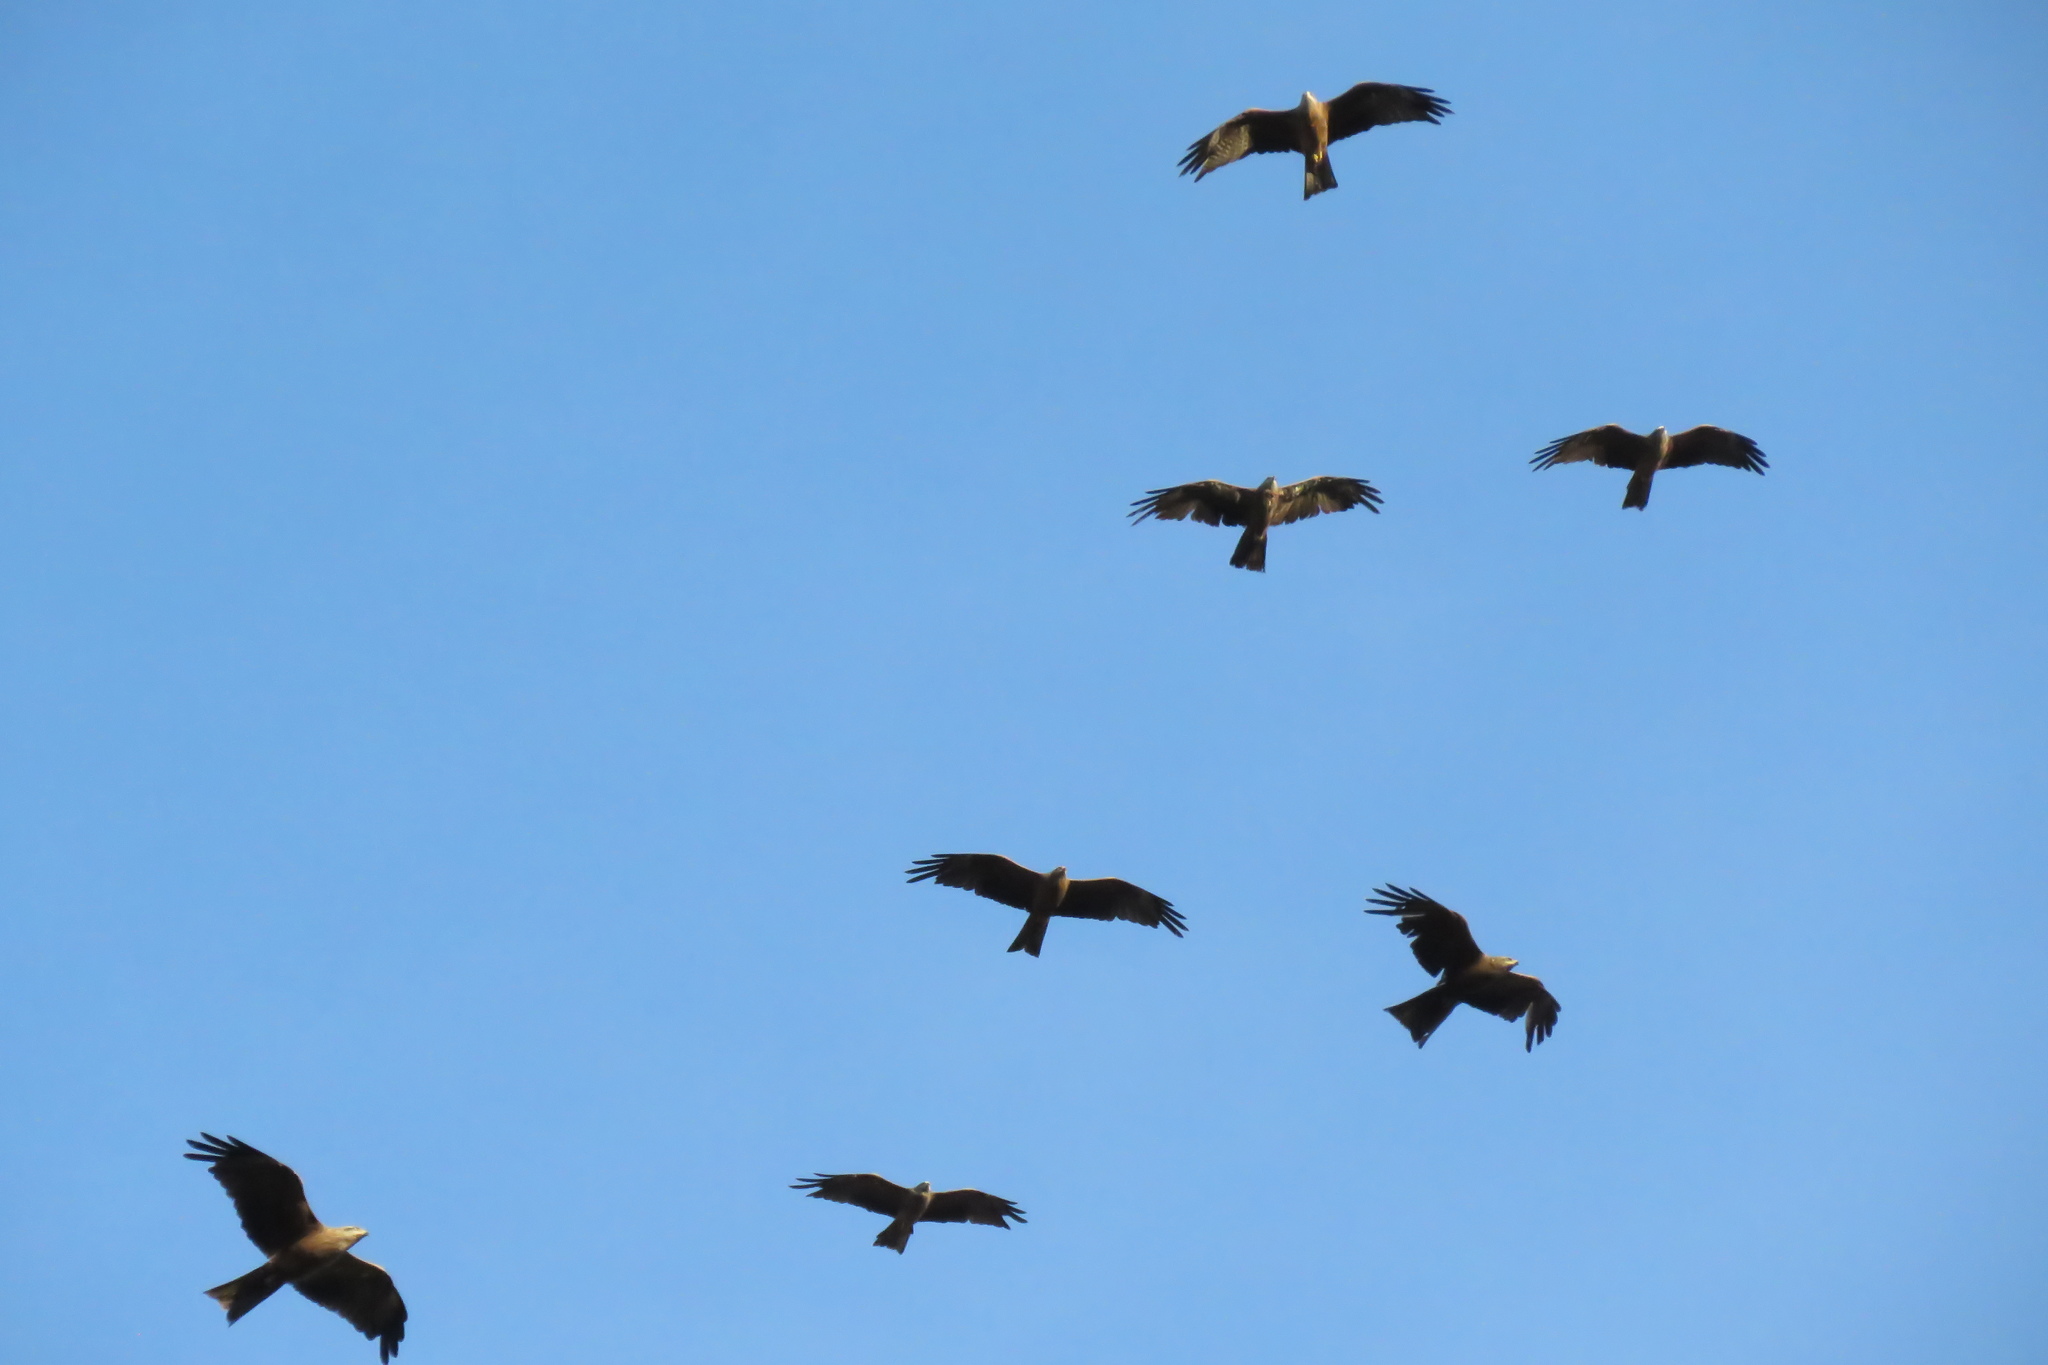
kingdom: Animalia
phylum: Chordata
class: Aves
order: Accipitriformes
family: Accipitridae
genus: Milvus
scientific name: Milvus migrans
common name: Black kite
